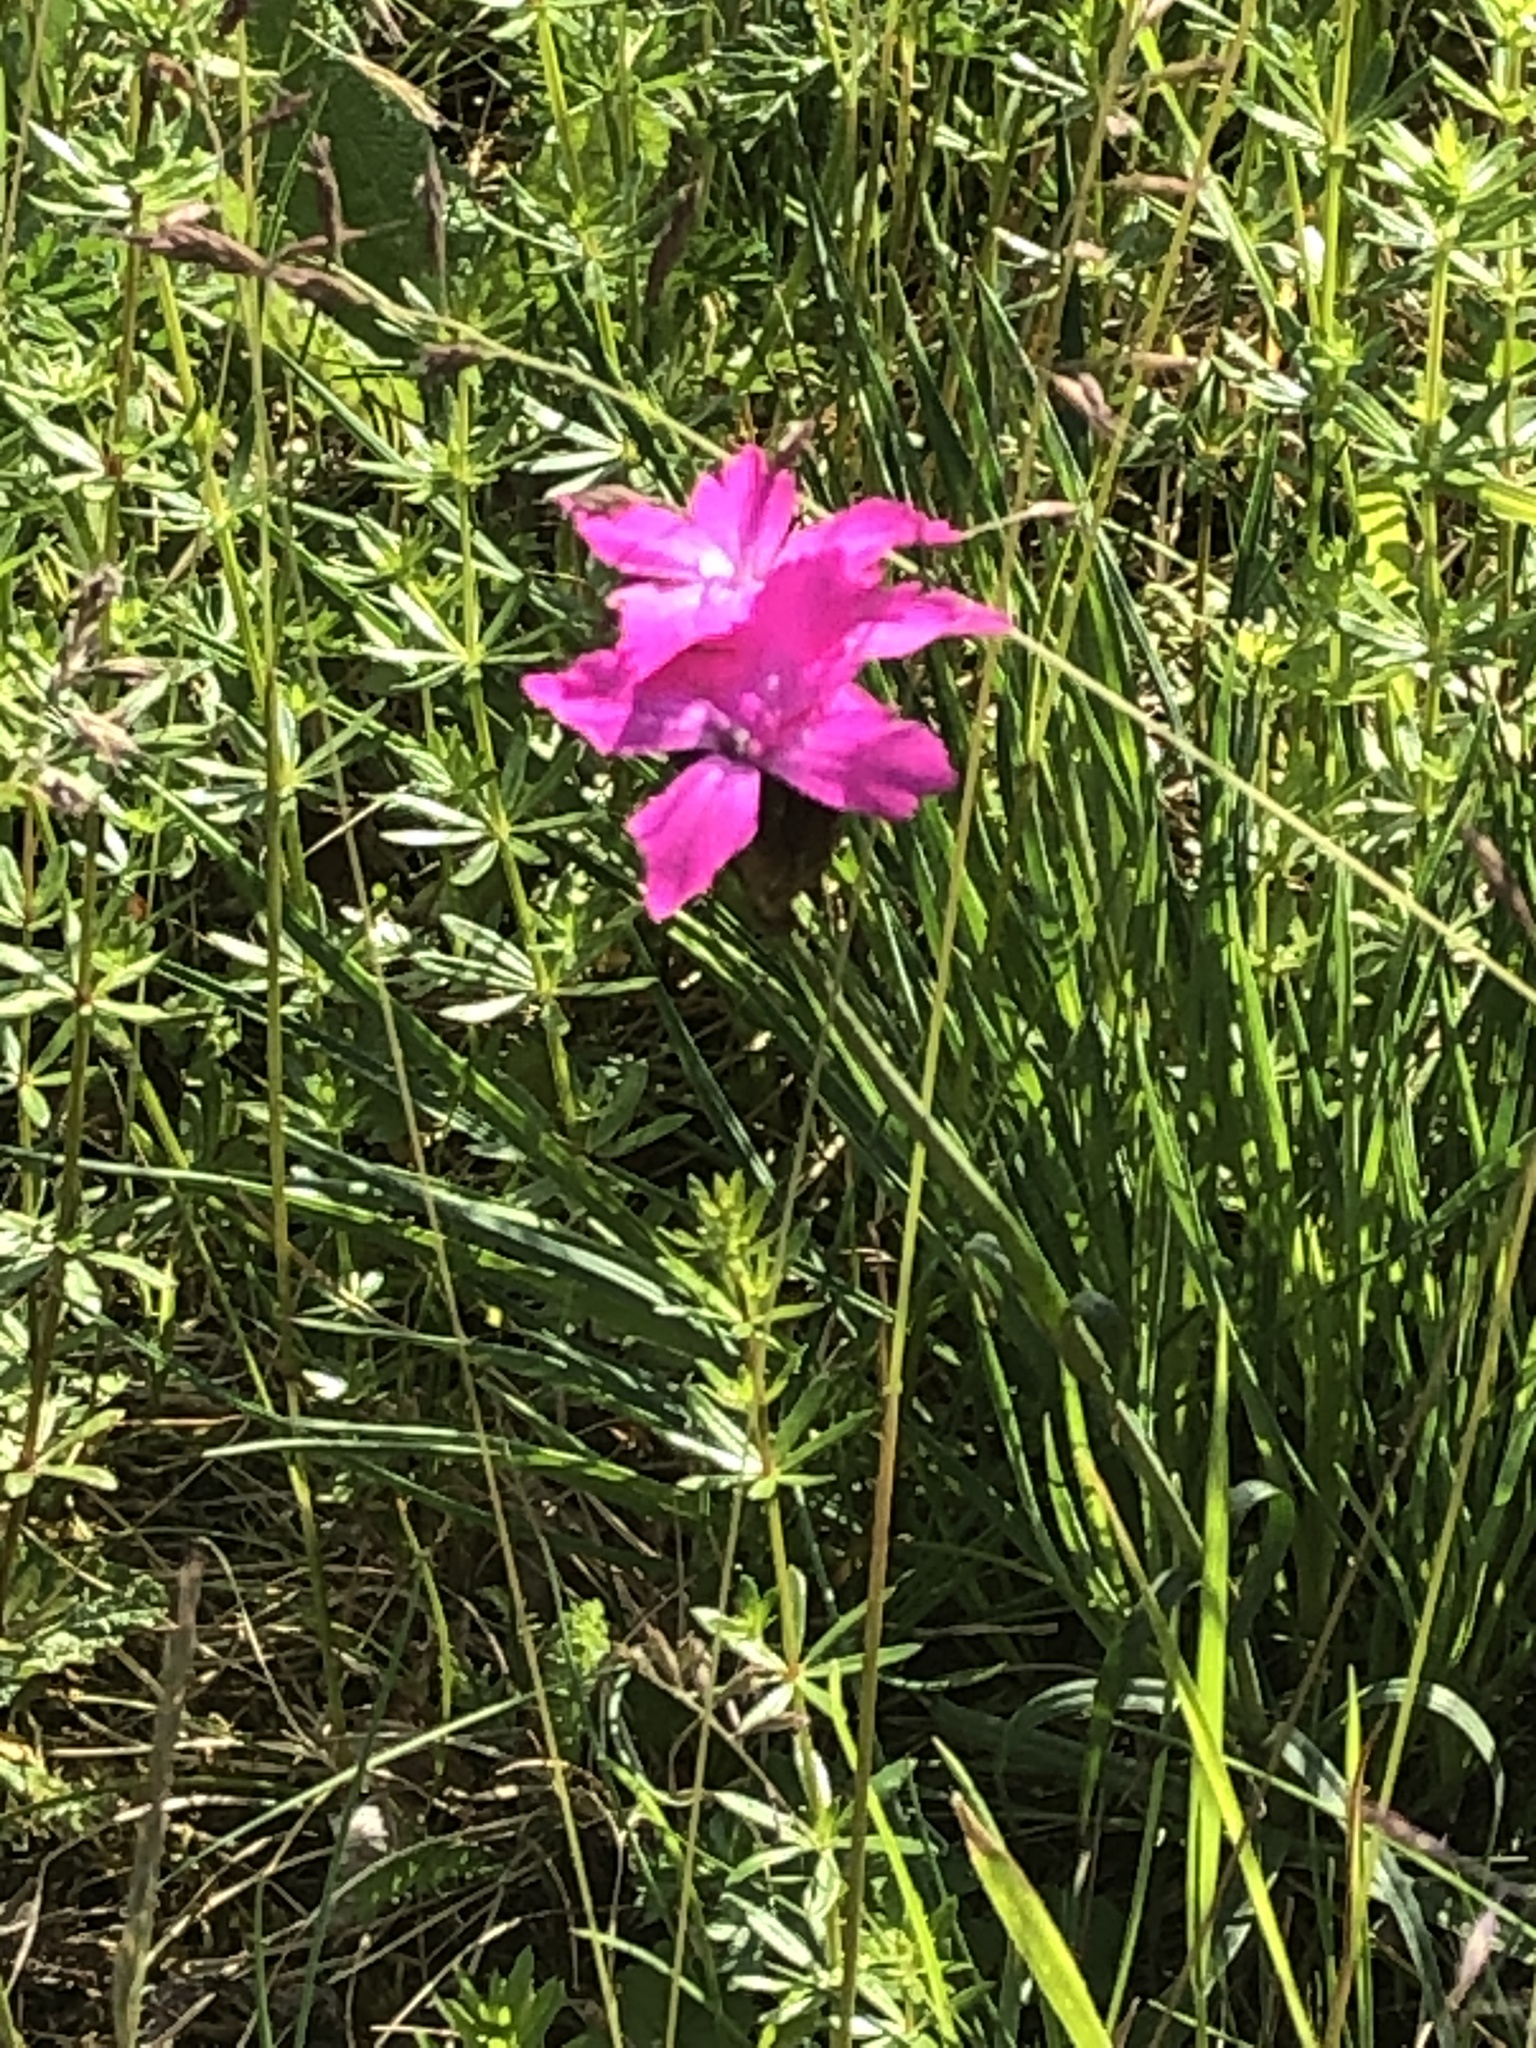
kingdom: Plantae
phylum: Tracheophyta
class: Magnoliopsida
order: Caryophyllales
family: Caryophyllaceae
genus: Dianthus
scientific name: Dianthus carthusianorum
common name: Carthusian pink
